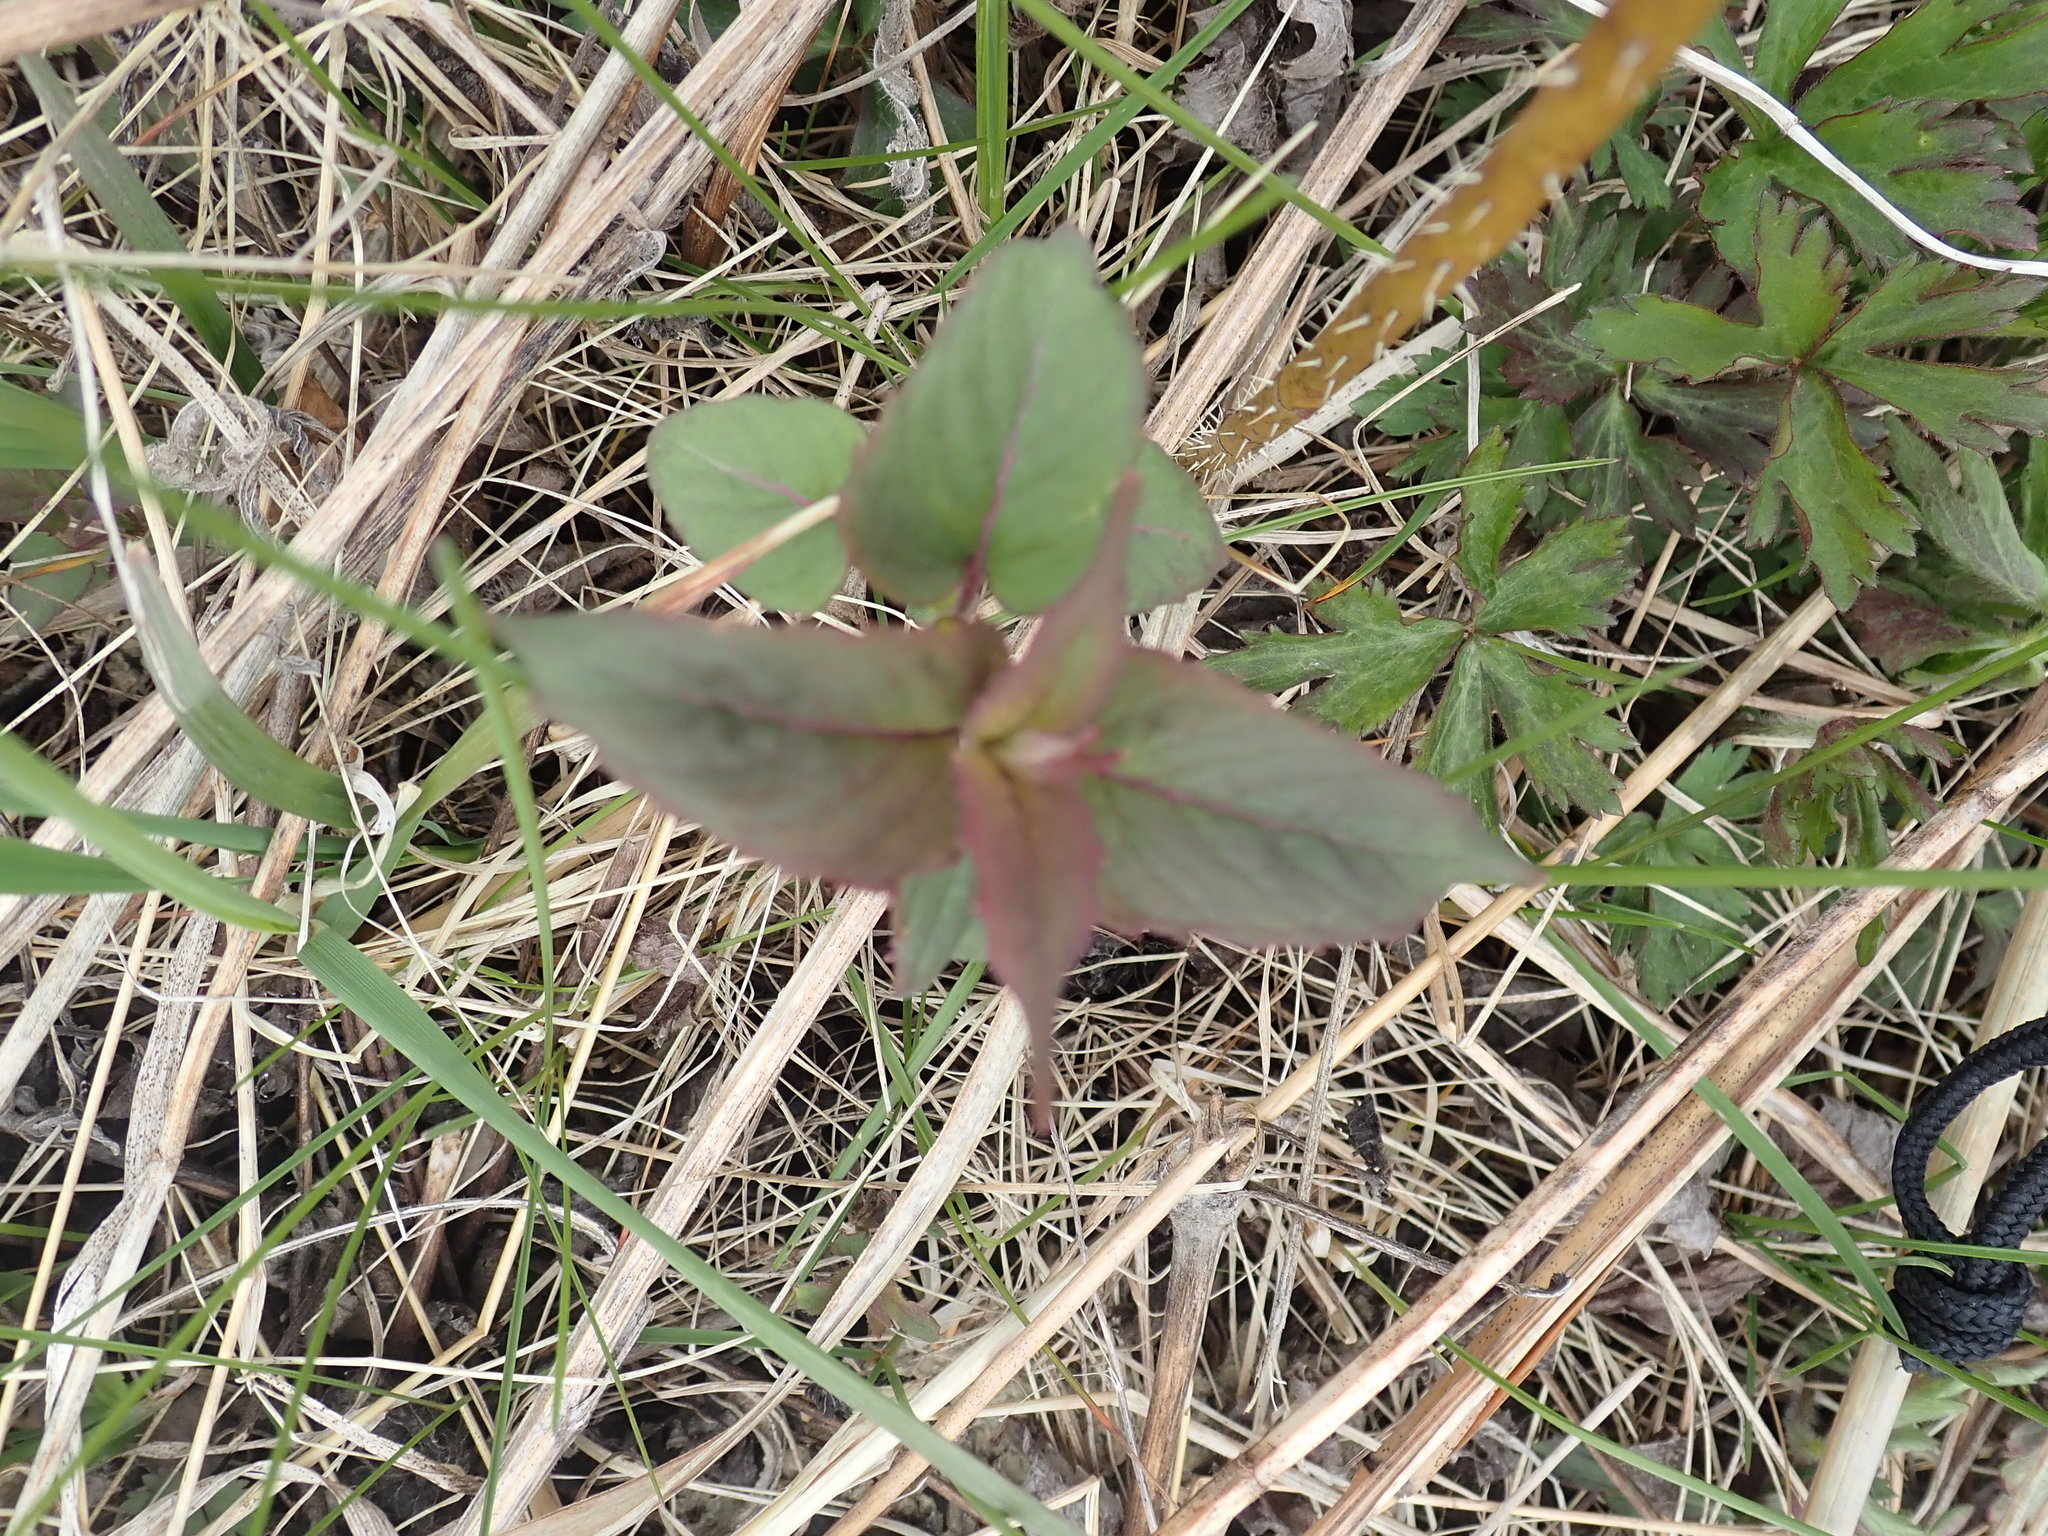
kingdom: Plantae
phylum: Tracheophyta
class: Magnoliopsida
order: Lamiales
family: Lamiaceae
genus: Monarda
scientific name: Monarda fistulosa
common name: Purple beebalm
